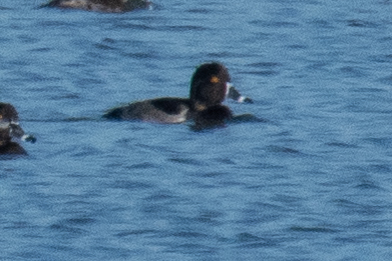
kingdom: Animalia
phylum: Chordata
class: Aves
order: Anseriformes
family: Anatidae
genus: Aythya
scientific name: Aythya collaris
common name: Ring-necked duck
